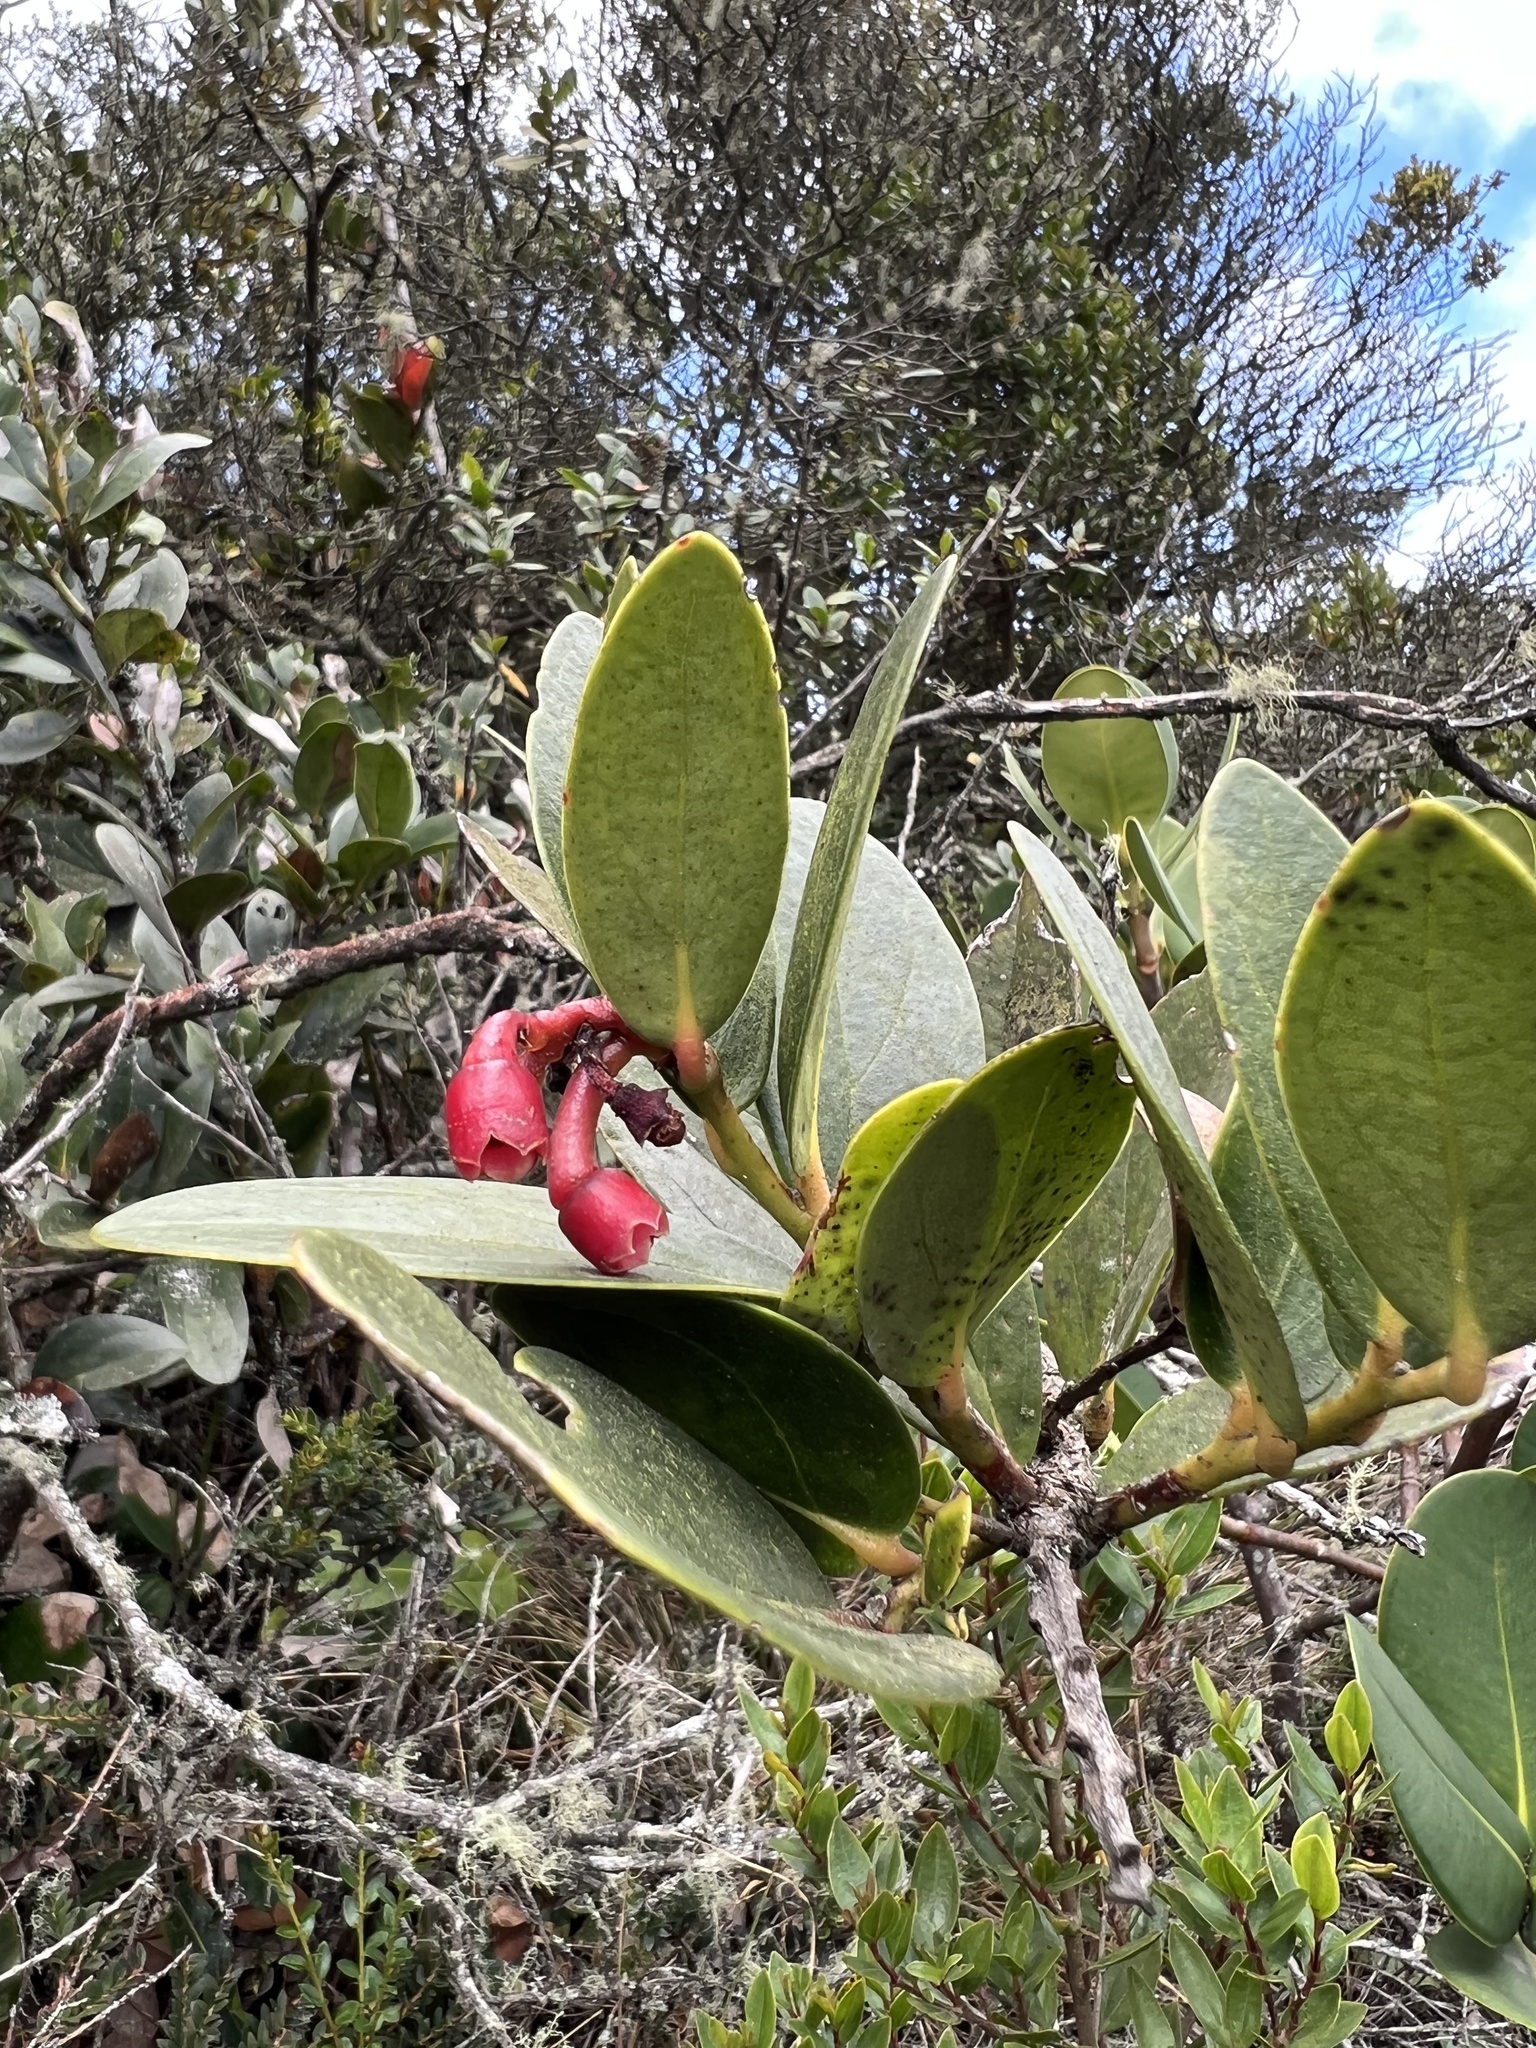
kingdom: Plantae
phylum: Tracheophyta
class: Magnoliopsida
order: Ericales
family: Ericaceae
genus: Macleania
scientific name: Macleania rupestris
